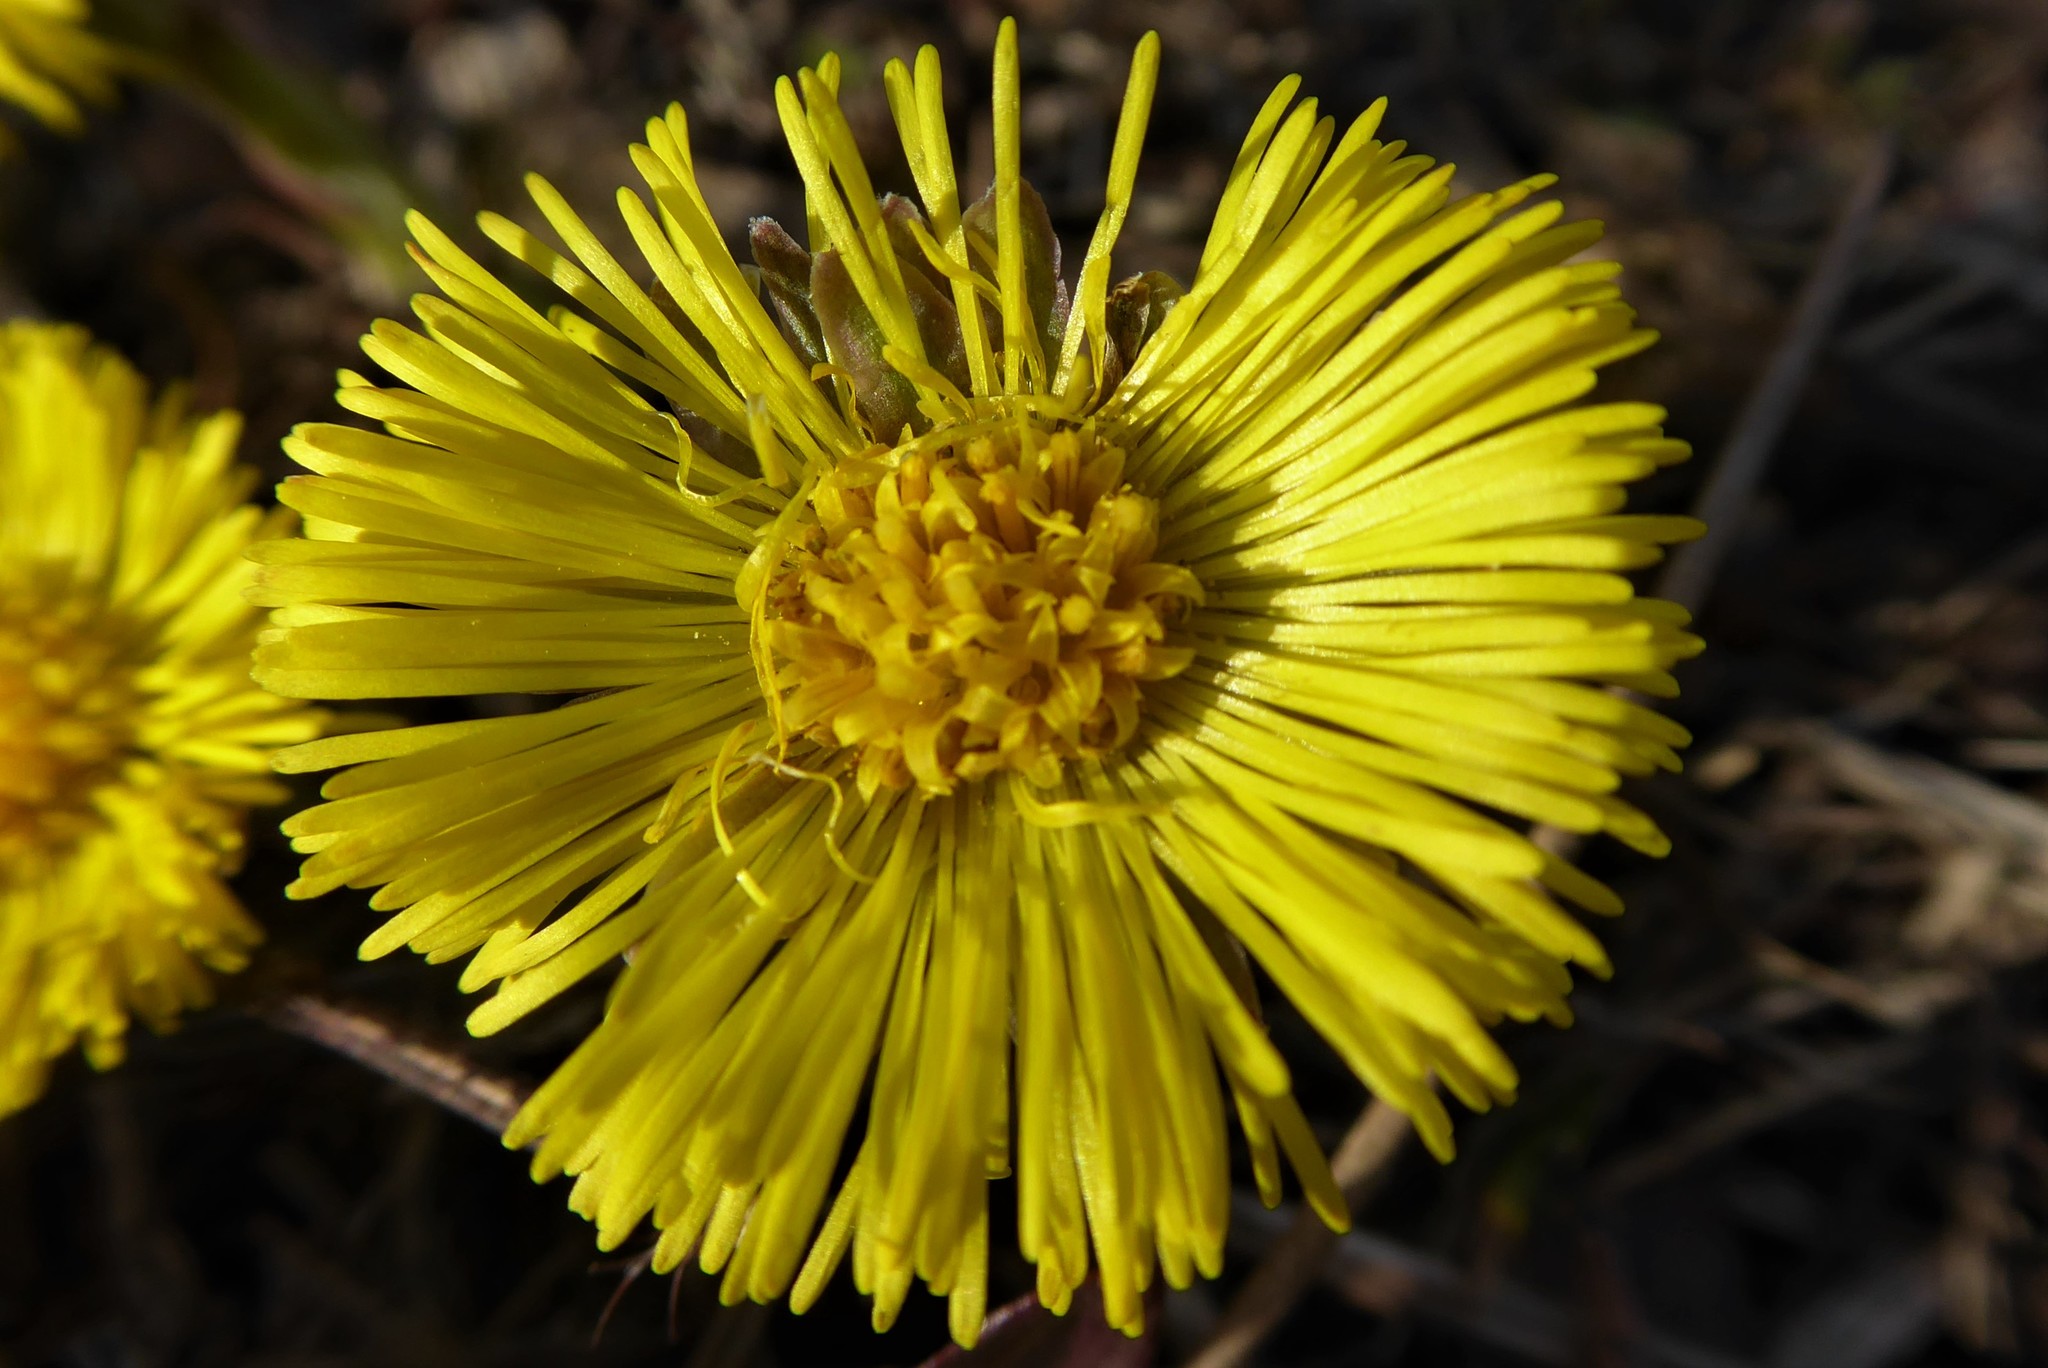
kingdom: Plantae
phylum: Tracheophyta
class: Magnoliopsida
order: Asterales
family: Asteraceae
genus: Tussilago
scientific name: Tussilago farfara
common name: Coltsfoot
